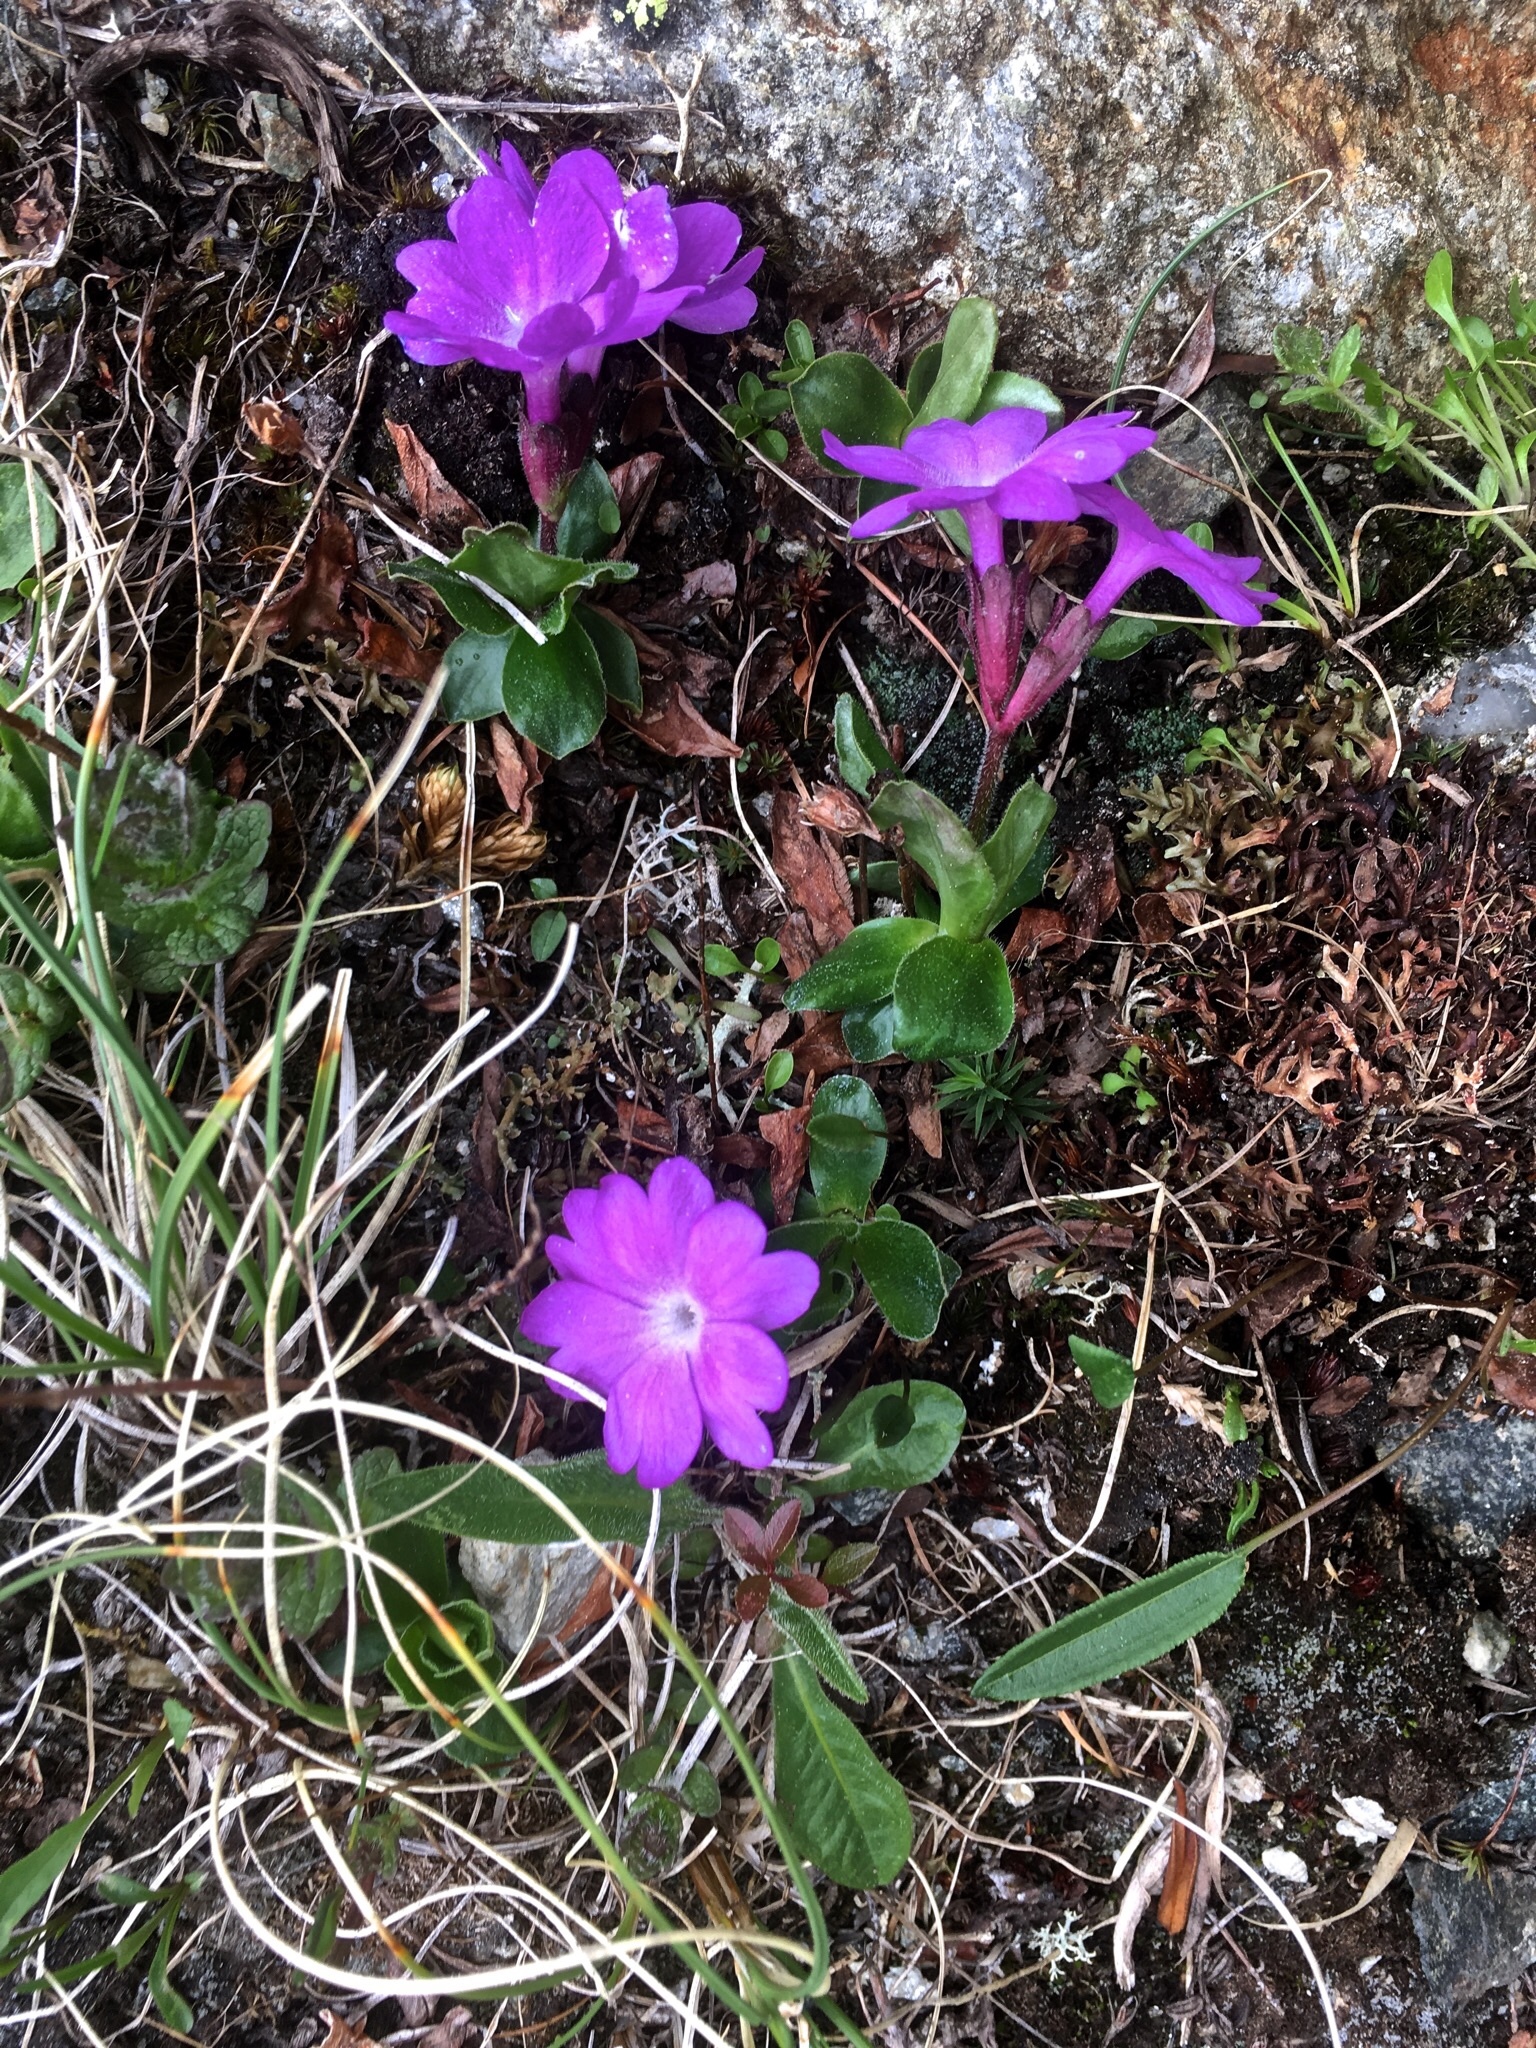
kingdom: Plantae
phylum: Tracheophyta
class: Magnoliopsida
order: Ericales
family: Primulaceae
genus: Primula
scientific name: Primula integrifolia
